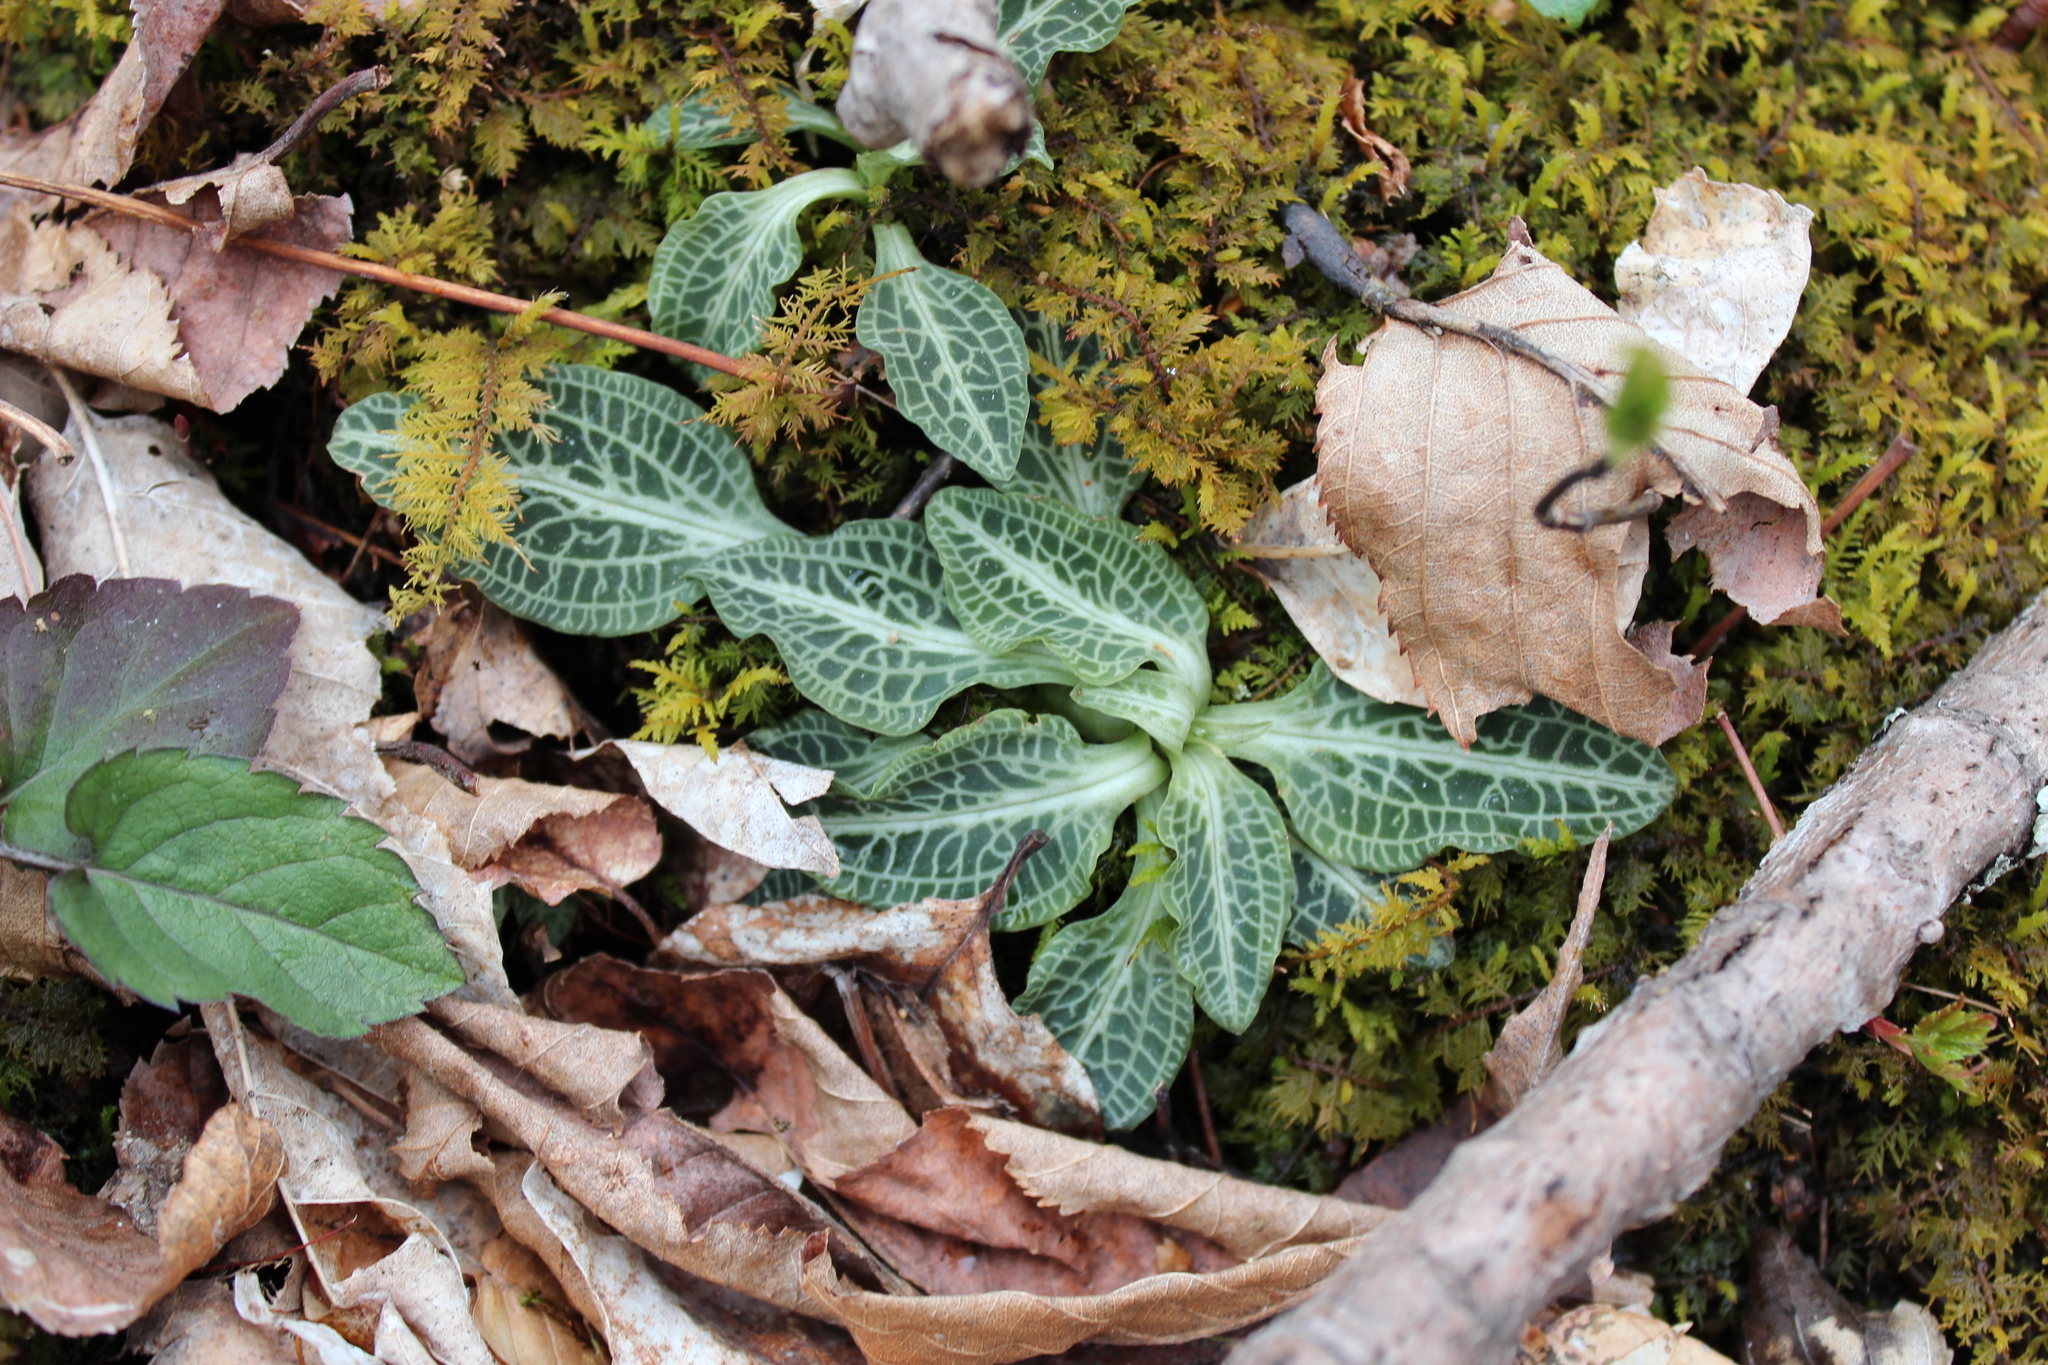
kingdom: Plantae
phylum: Tracheophyta
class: Liliopsida
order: Asparagales
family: Orchidaceae
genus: Goodyera
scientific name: Goodyera pubescens
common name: Downy rattlesnake-plantain
